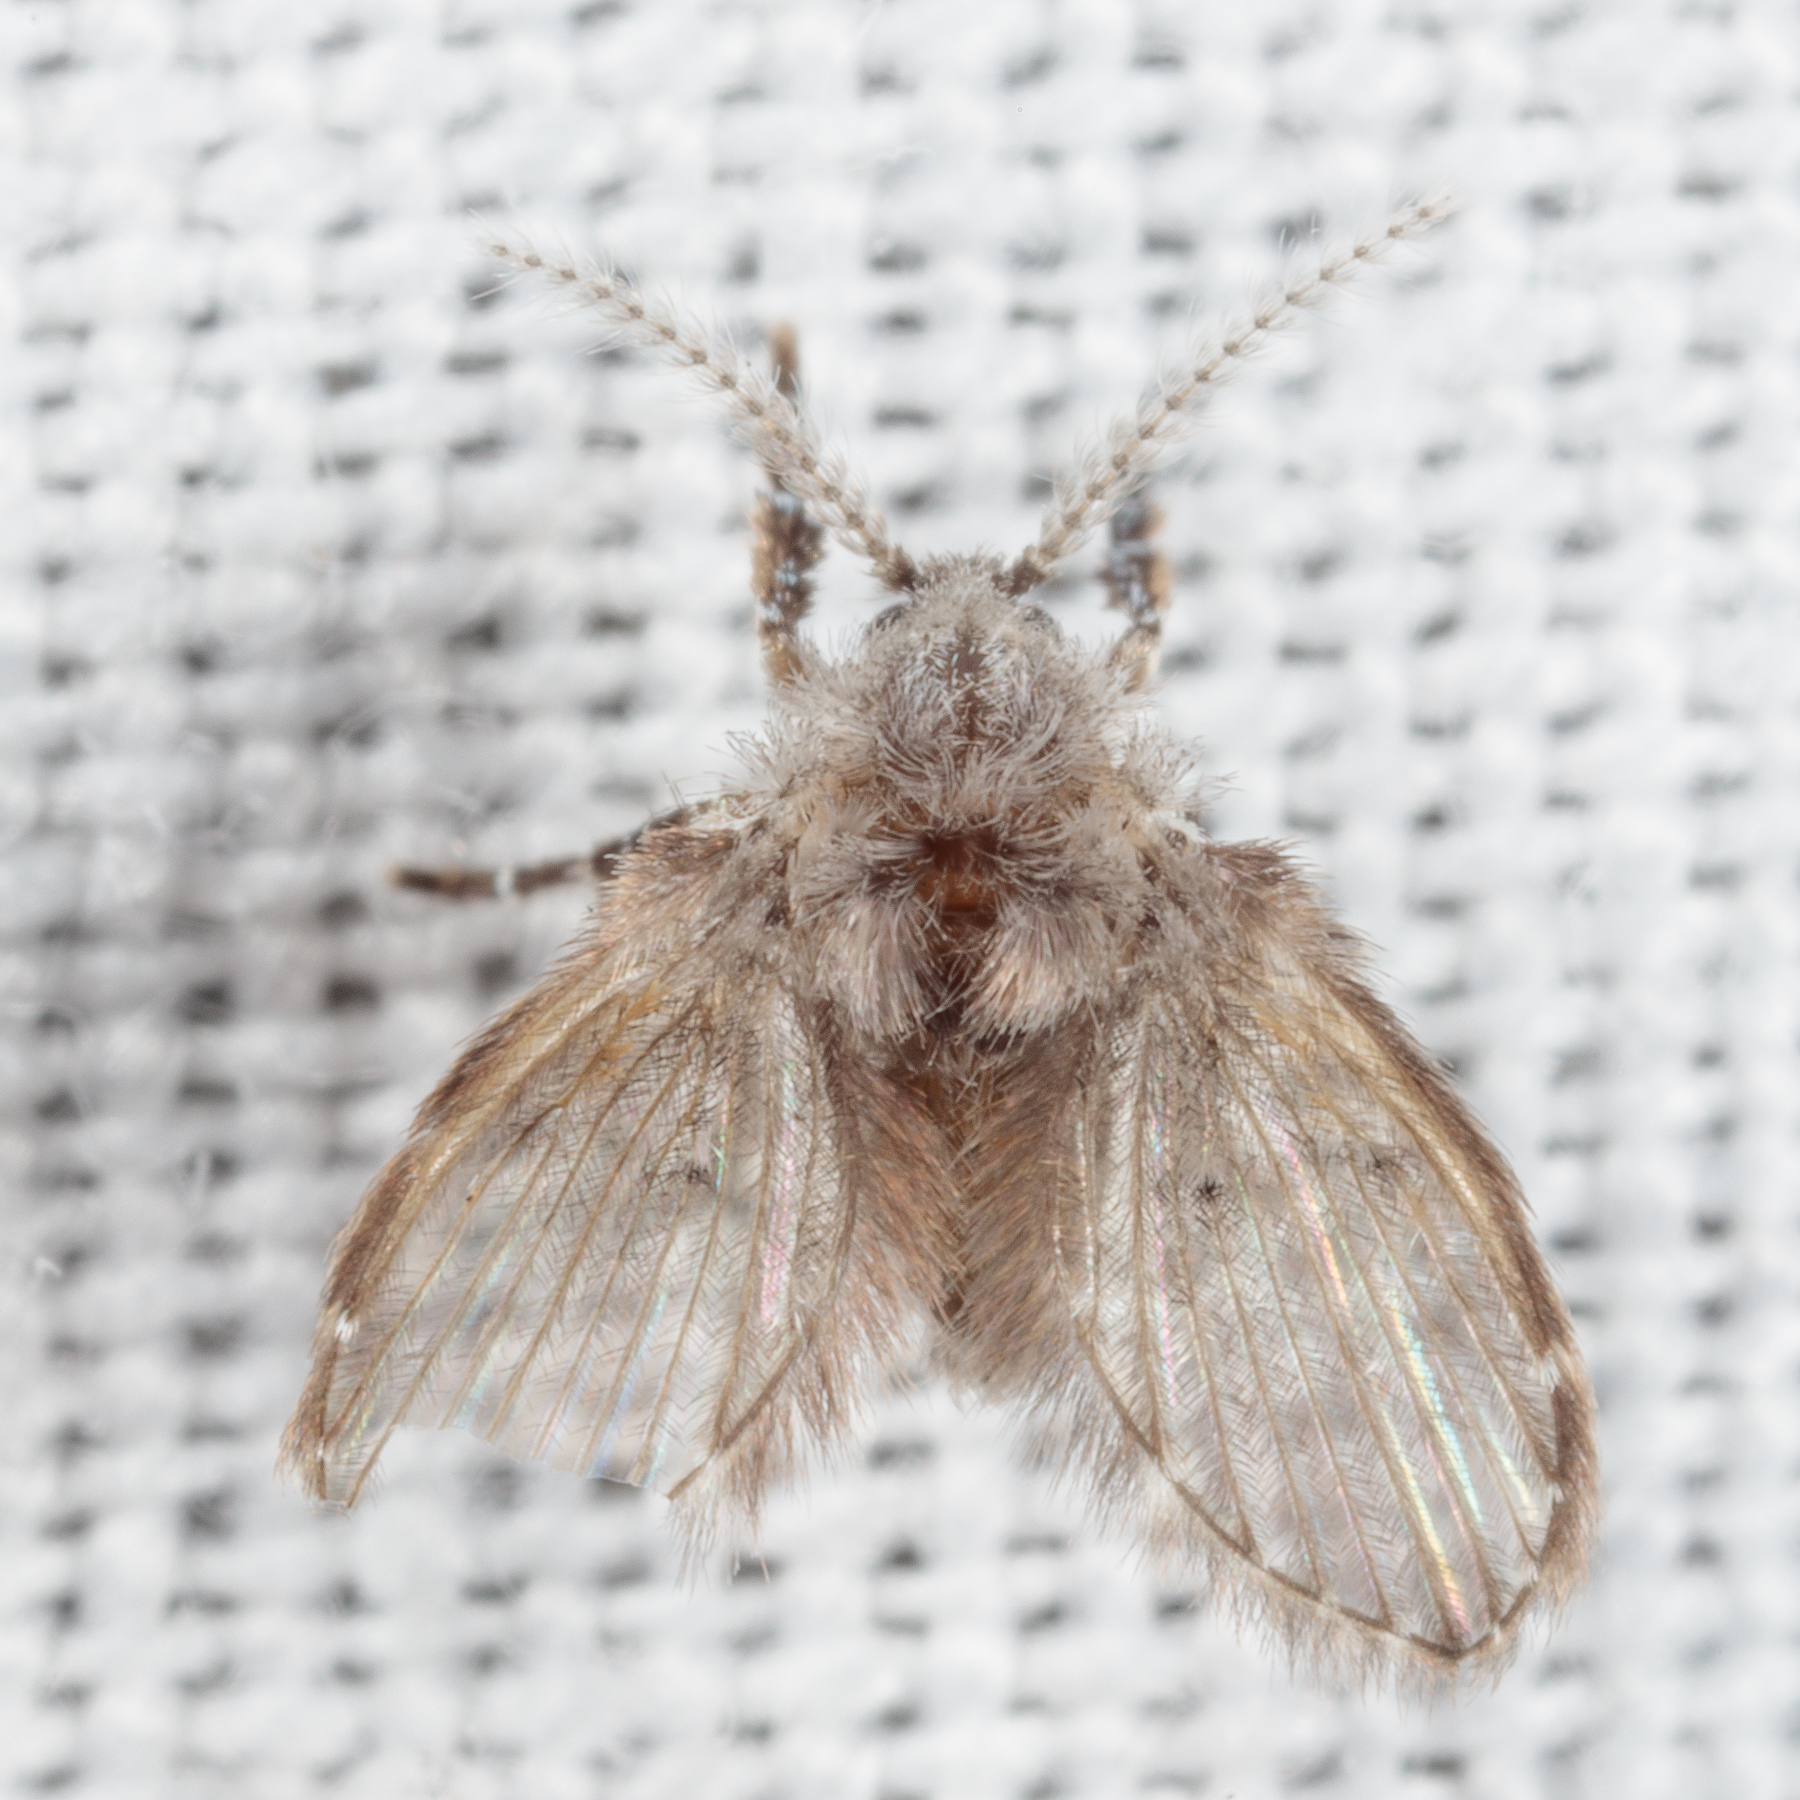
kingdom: Animalia
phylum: Arthropoda
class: Insecta
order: Diptera
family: Psychodidae
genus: Clogmia
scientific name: Clogmia albipunctatus
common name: White-spotted moth fly
